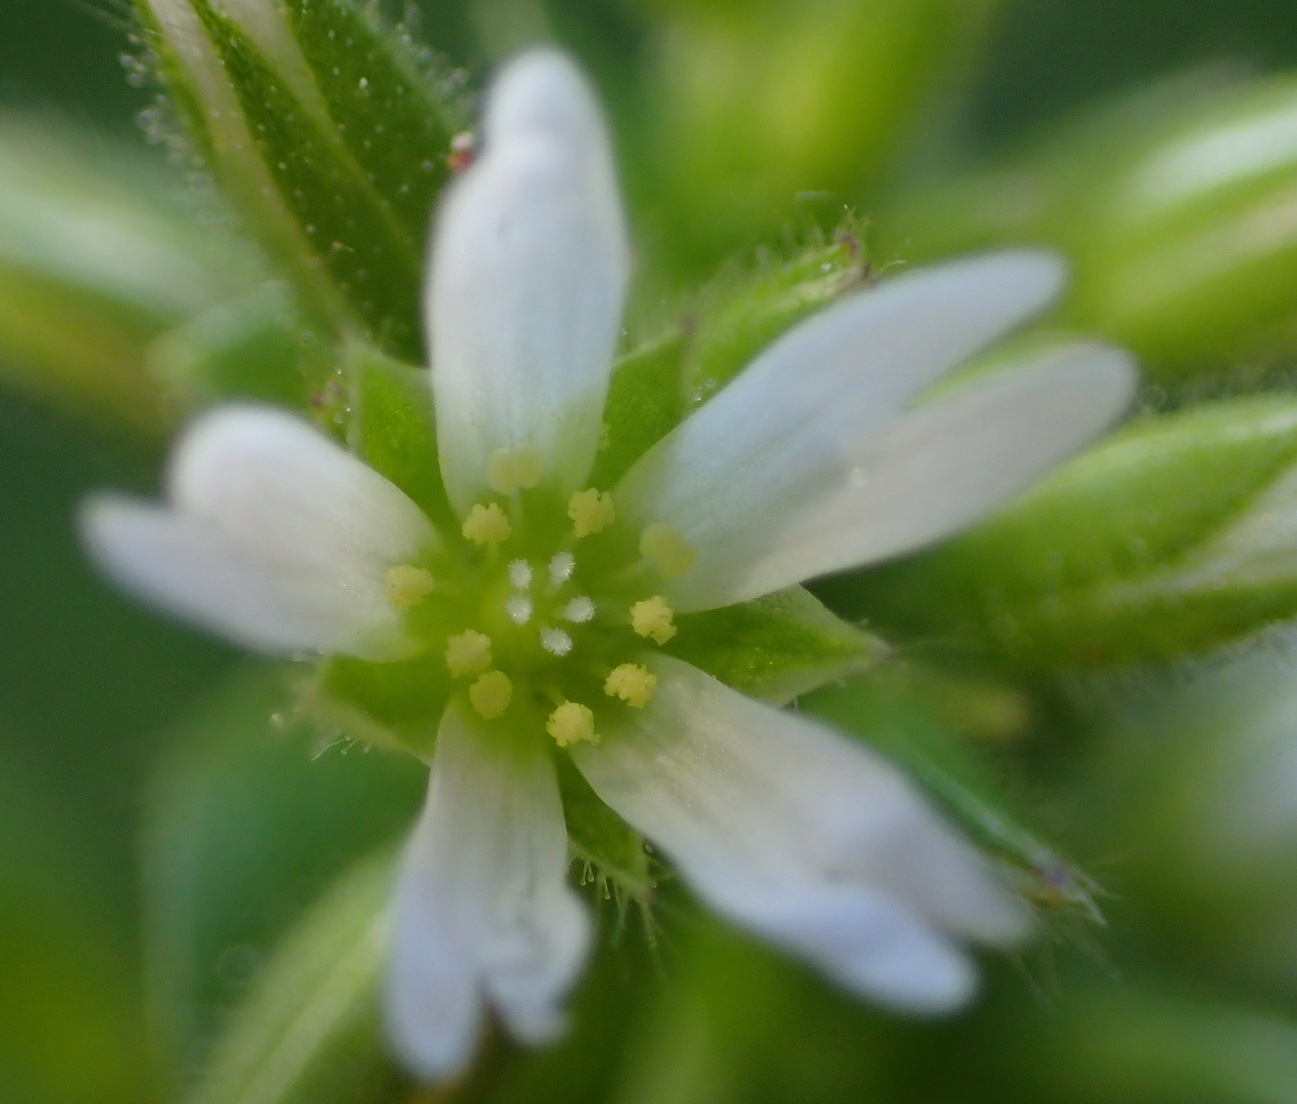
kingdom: Plantae
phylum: Tracheophyta
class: Magnoliopsida
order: Caryophyllales
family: Caryophyllaceae
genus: Cerastium
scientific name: Cerastium capense
